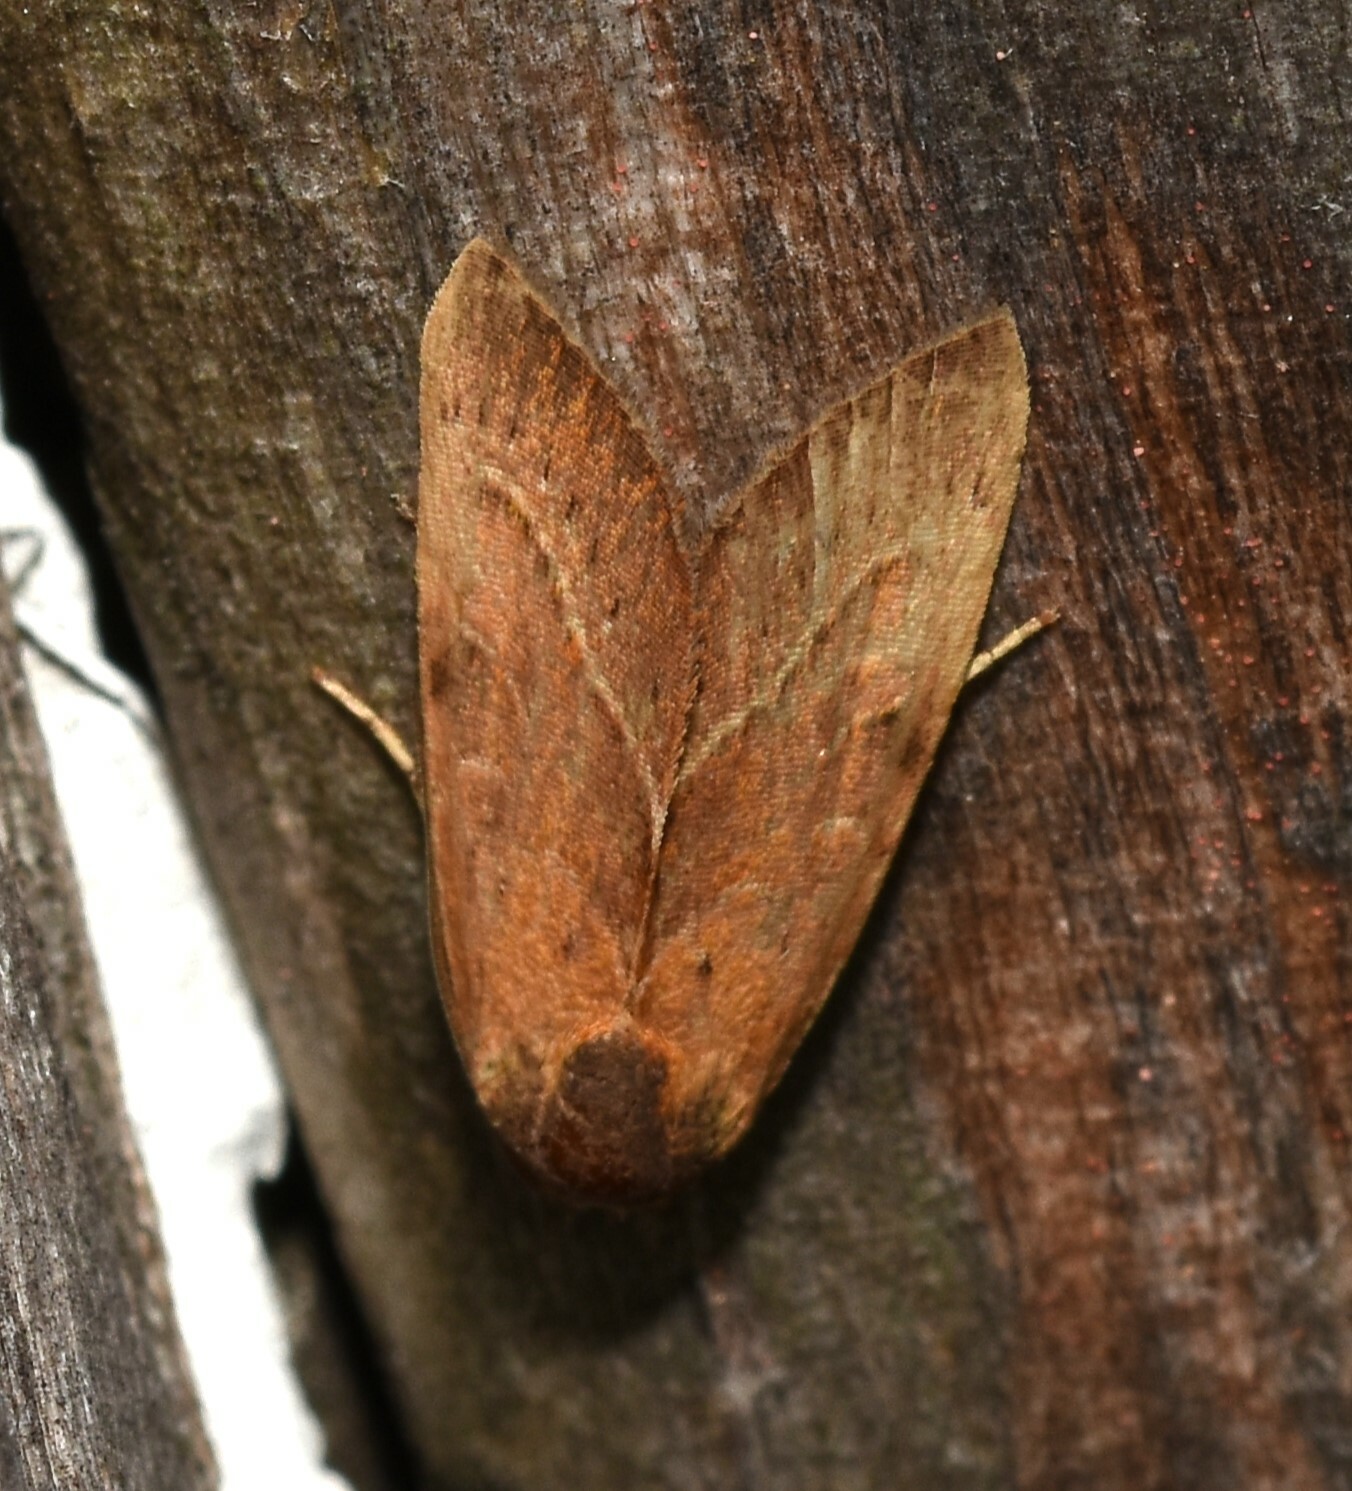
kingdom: Animalia
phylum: Arthropoda
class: Insecta
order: Lepidoptera
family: Noctuidae
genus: Galgula
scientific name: Galgula partita
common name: Wedgeling
